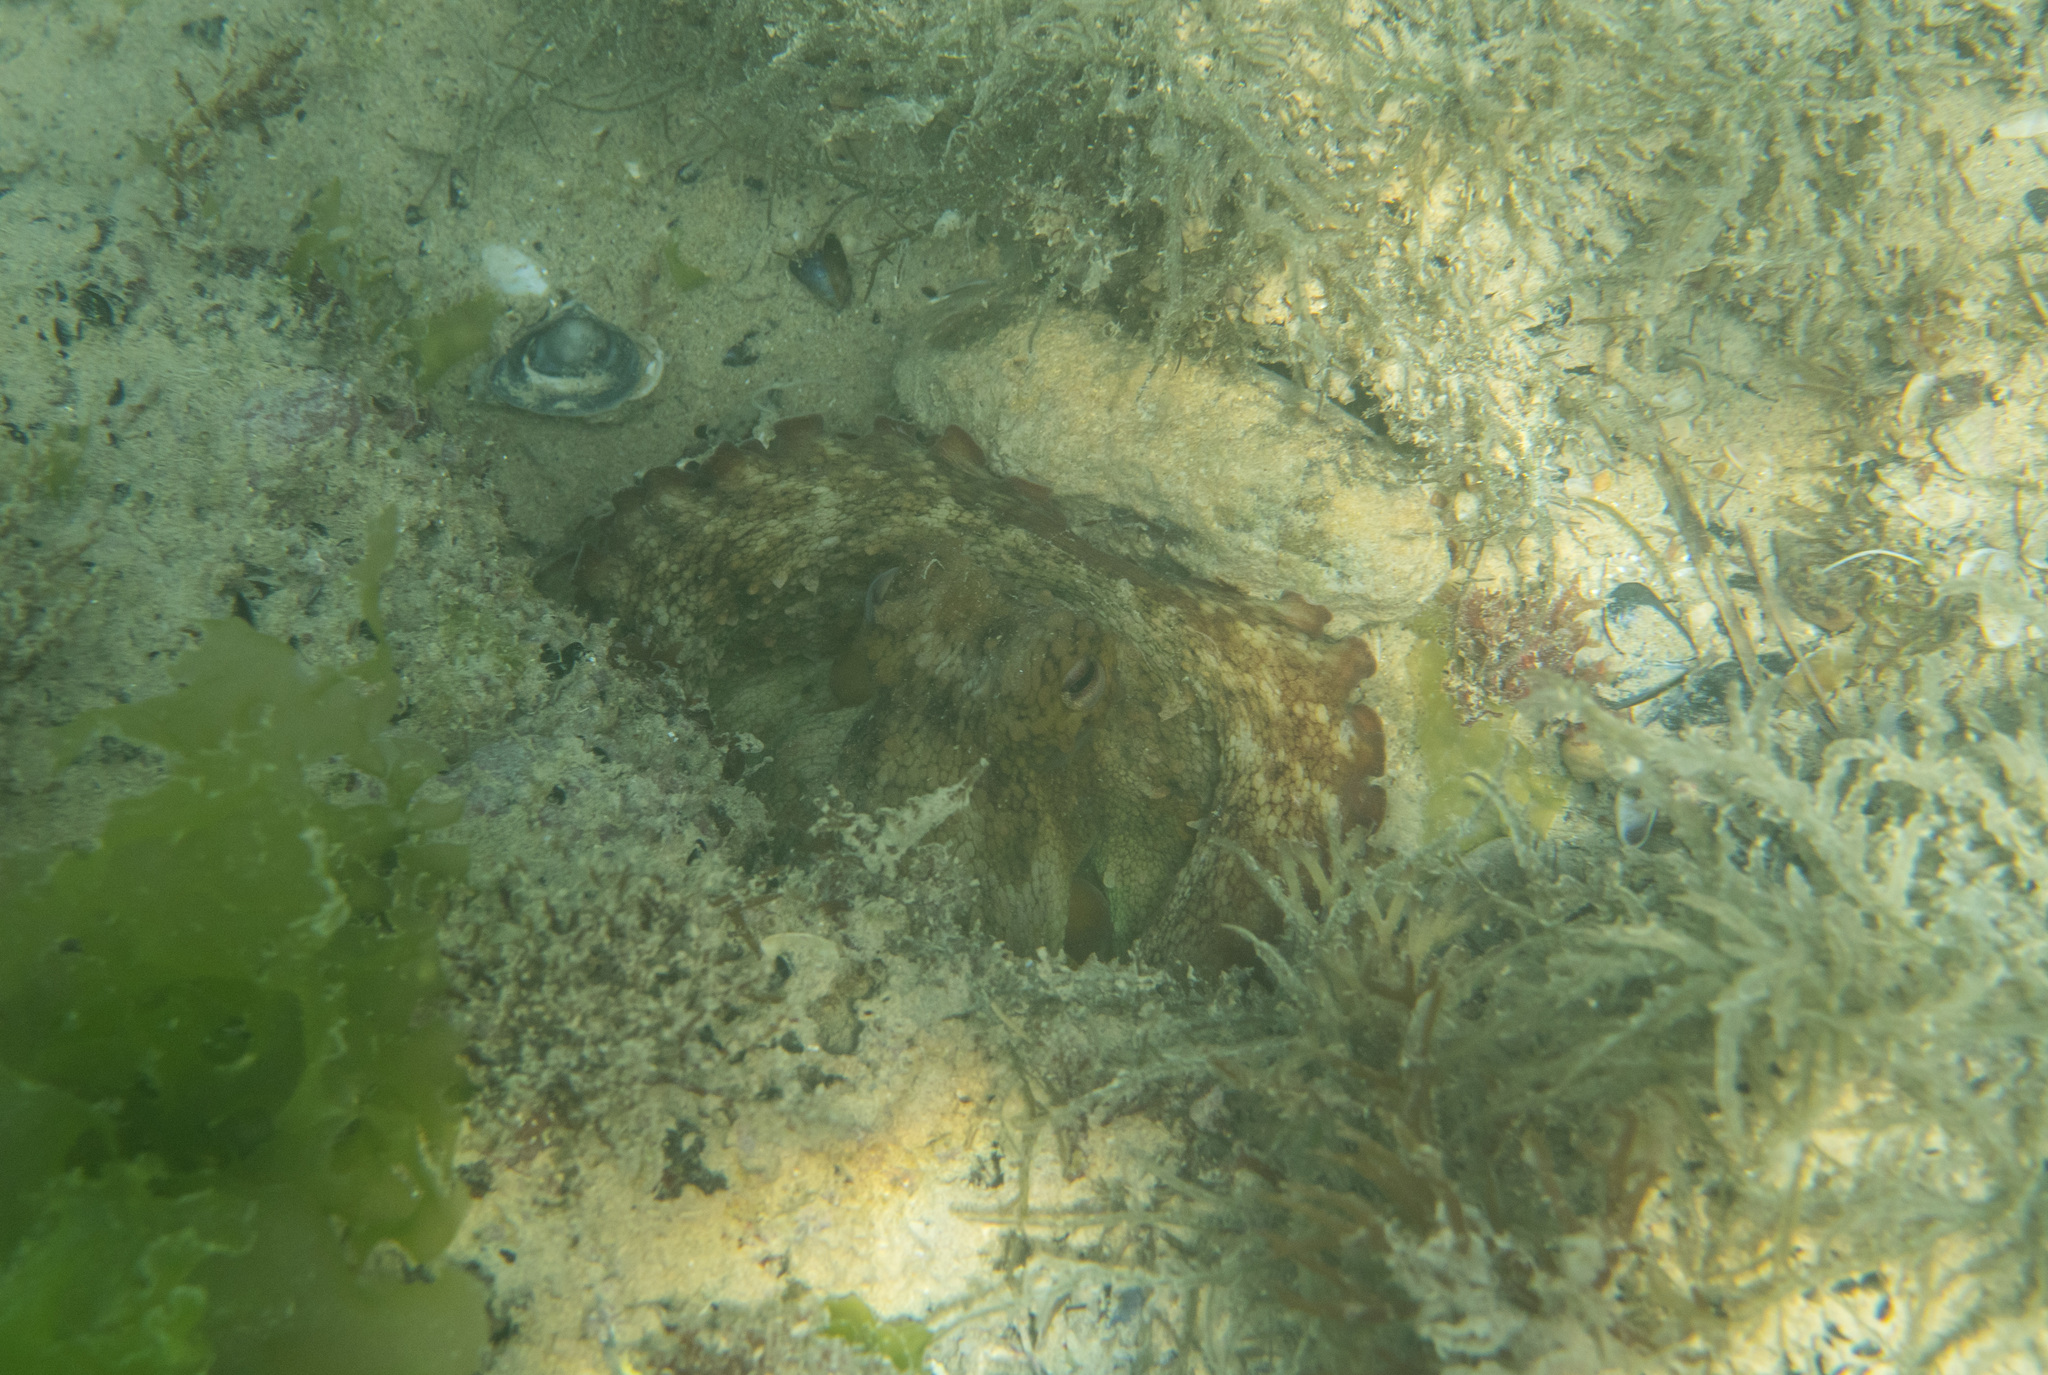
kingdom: Animalia
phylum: Mollusca
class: Cephalopoda
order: Octopoda
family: Octopodidae
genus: Octopus
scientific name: Octopus vulgaris
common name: Common octopus
